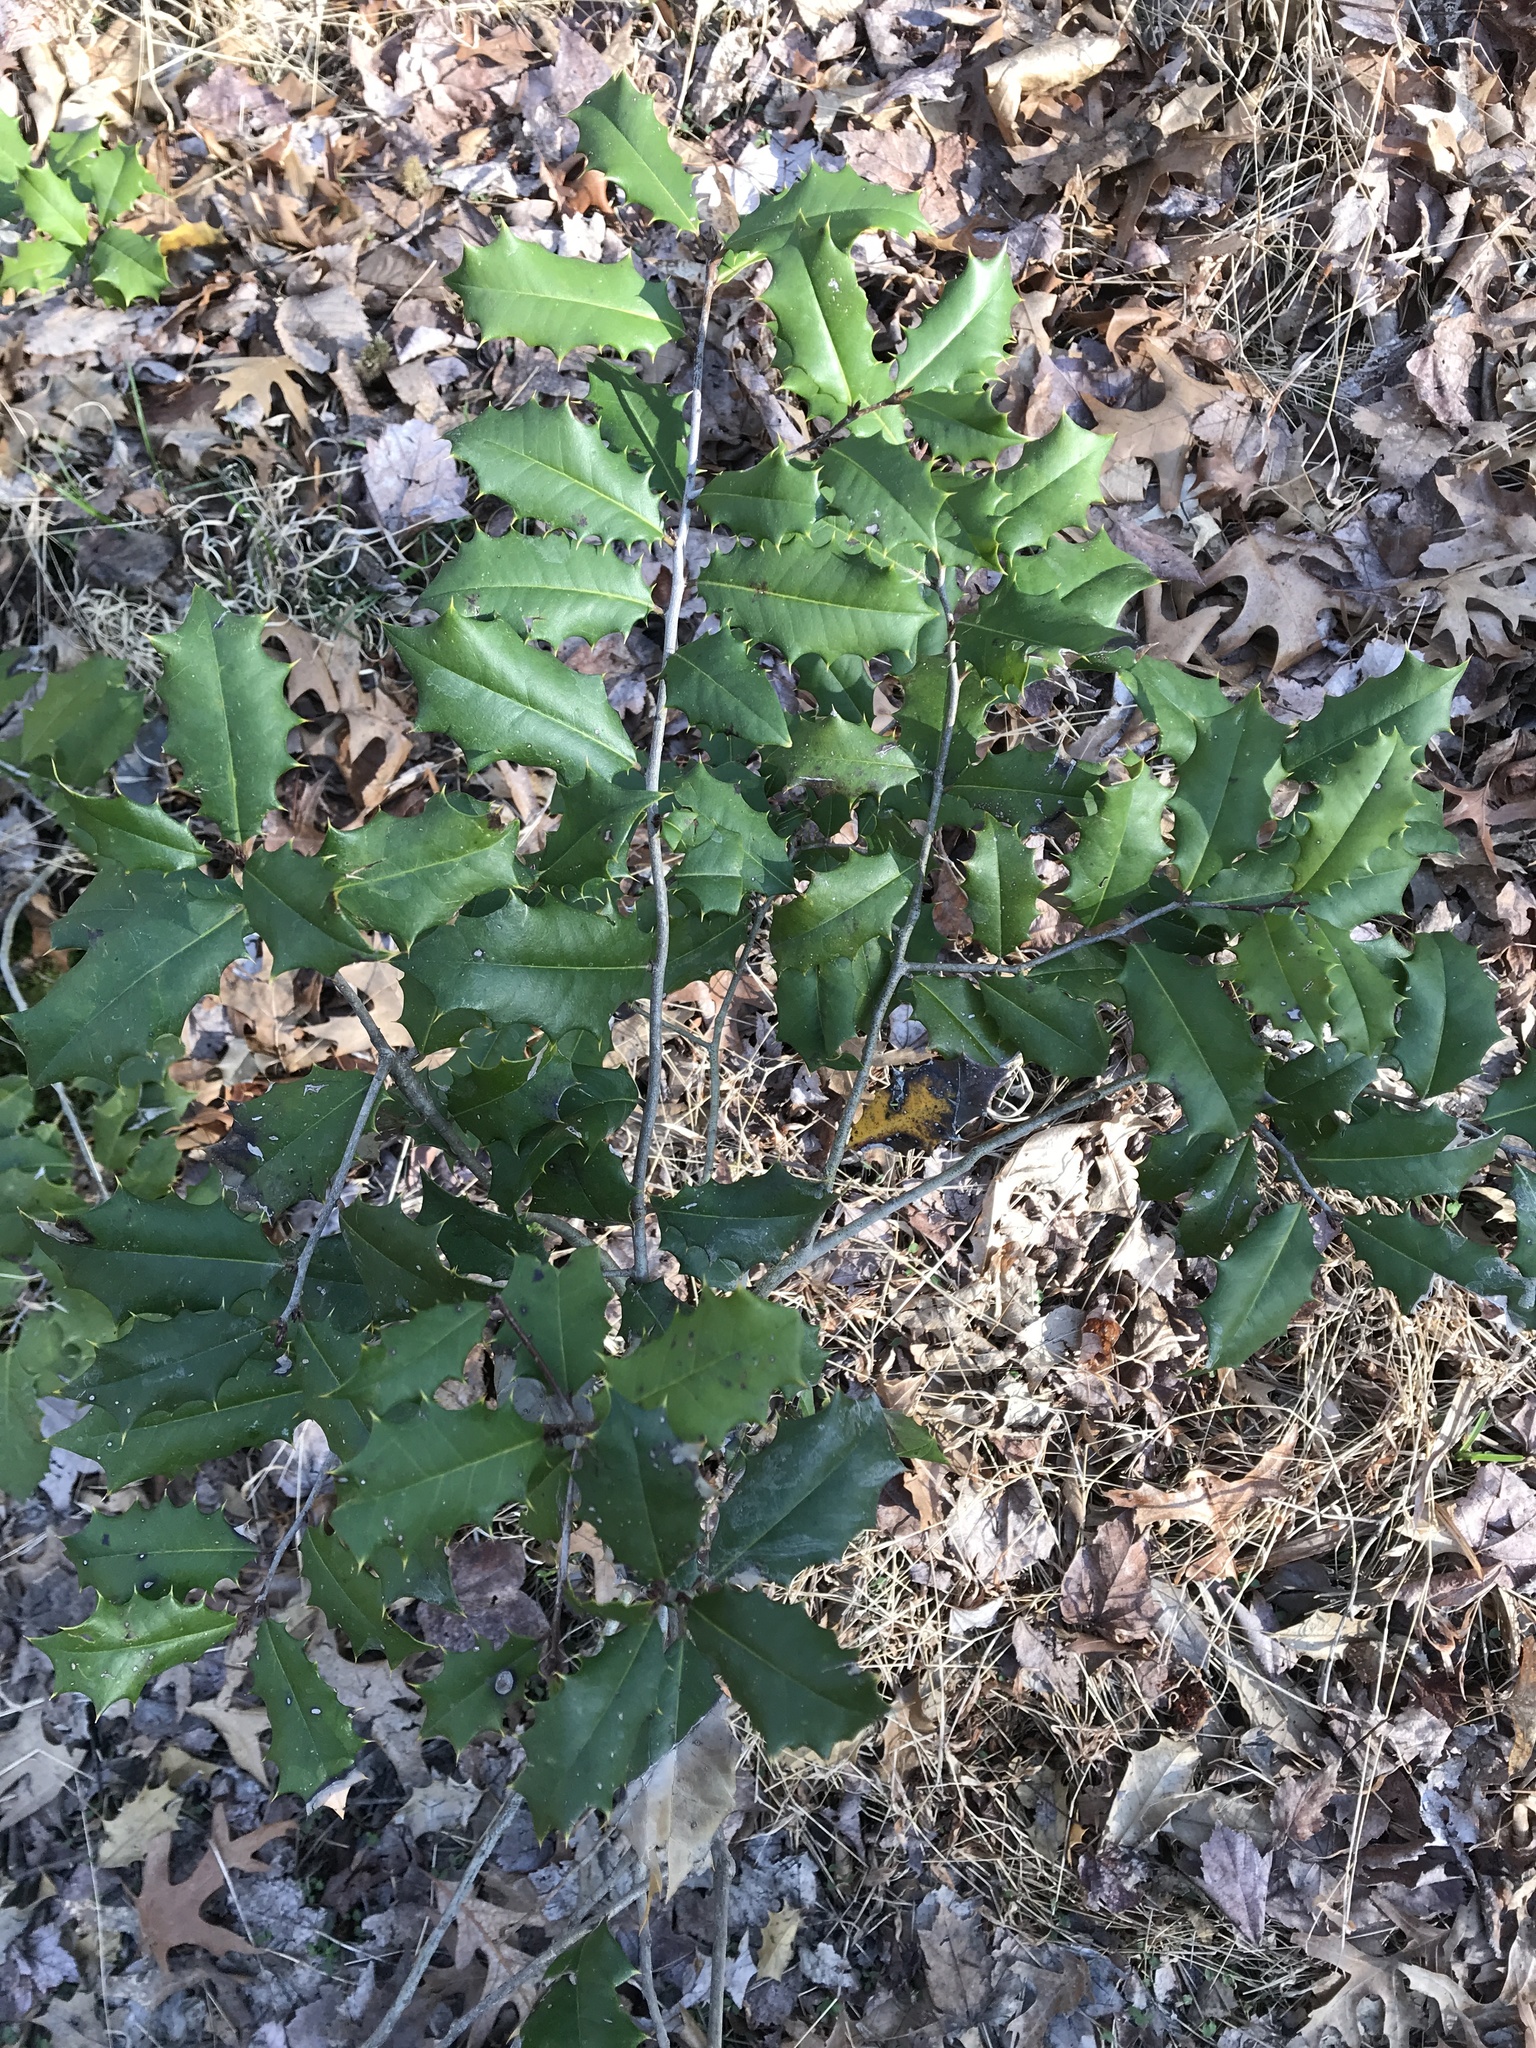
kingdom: Plantae
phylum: Tracheophyta
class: Magnoliopsida
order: Aquifoliales
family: Aquifoliaceae
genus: Ilex
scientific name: Ilex opaca
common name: American holly
